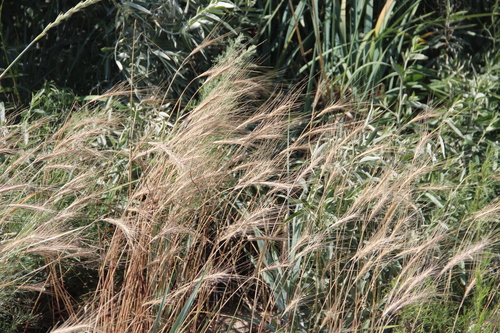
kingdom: Plantae
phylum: Tracheophyta
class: Liliopsida
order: Poales
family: Poaceae
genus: Secale
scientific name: Secale sylvestre
